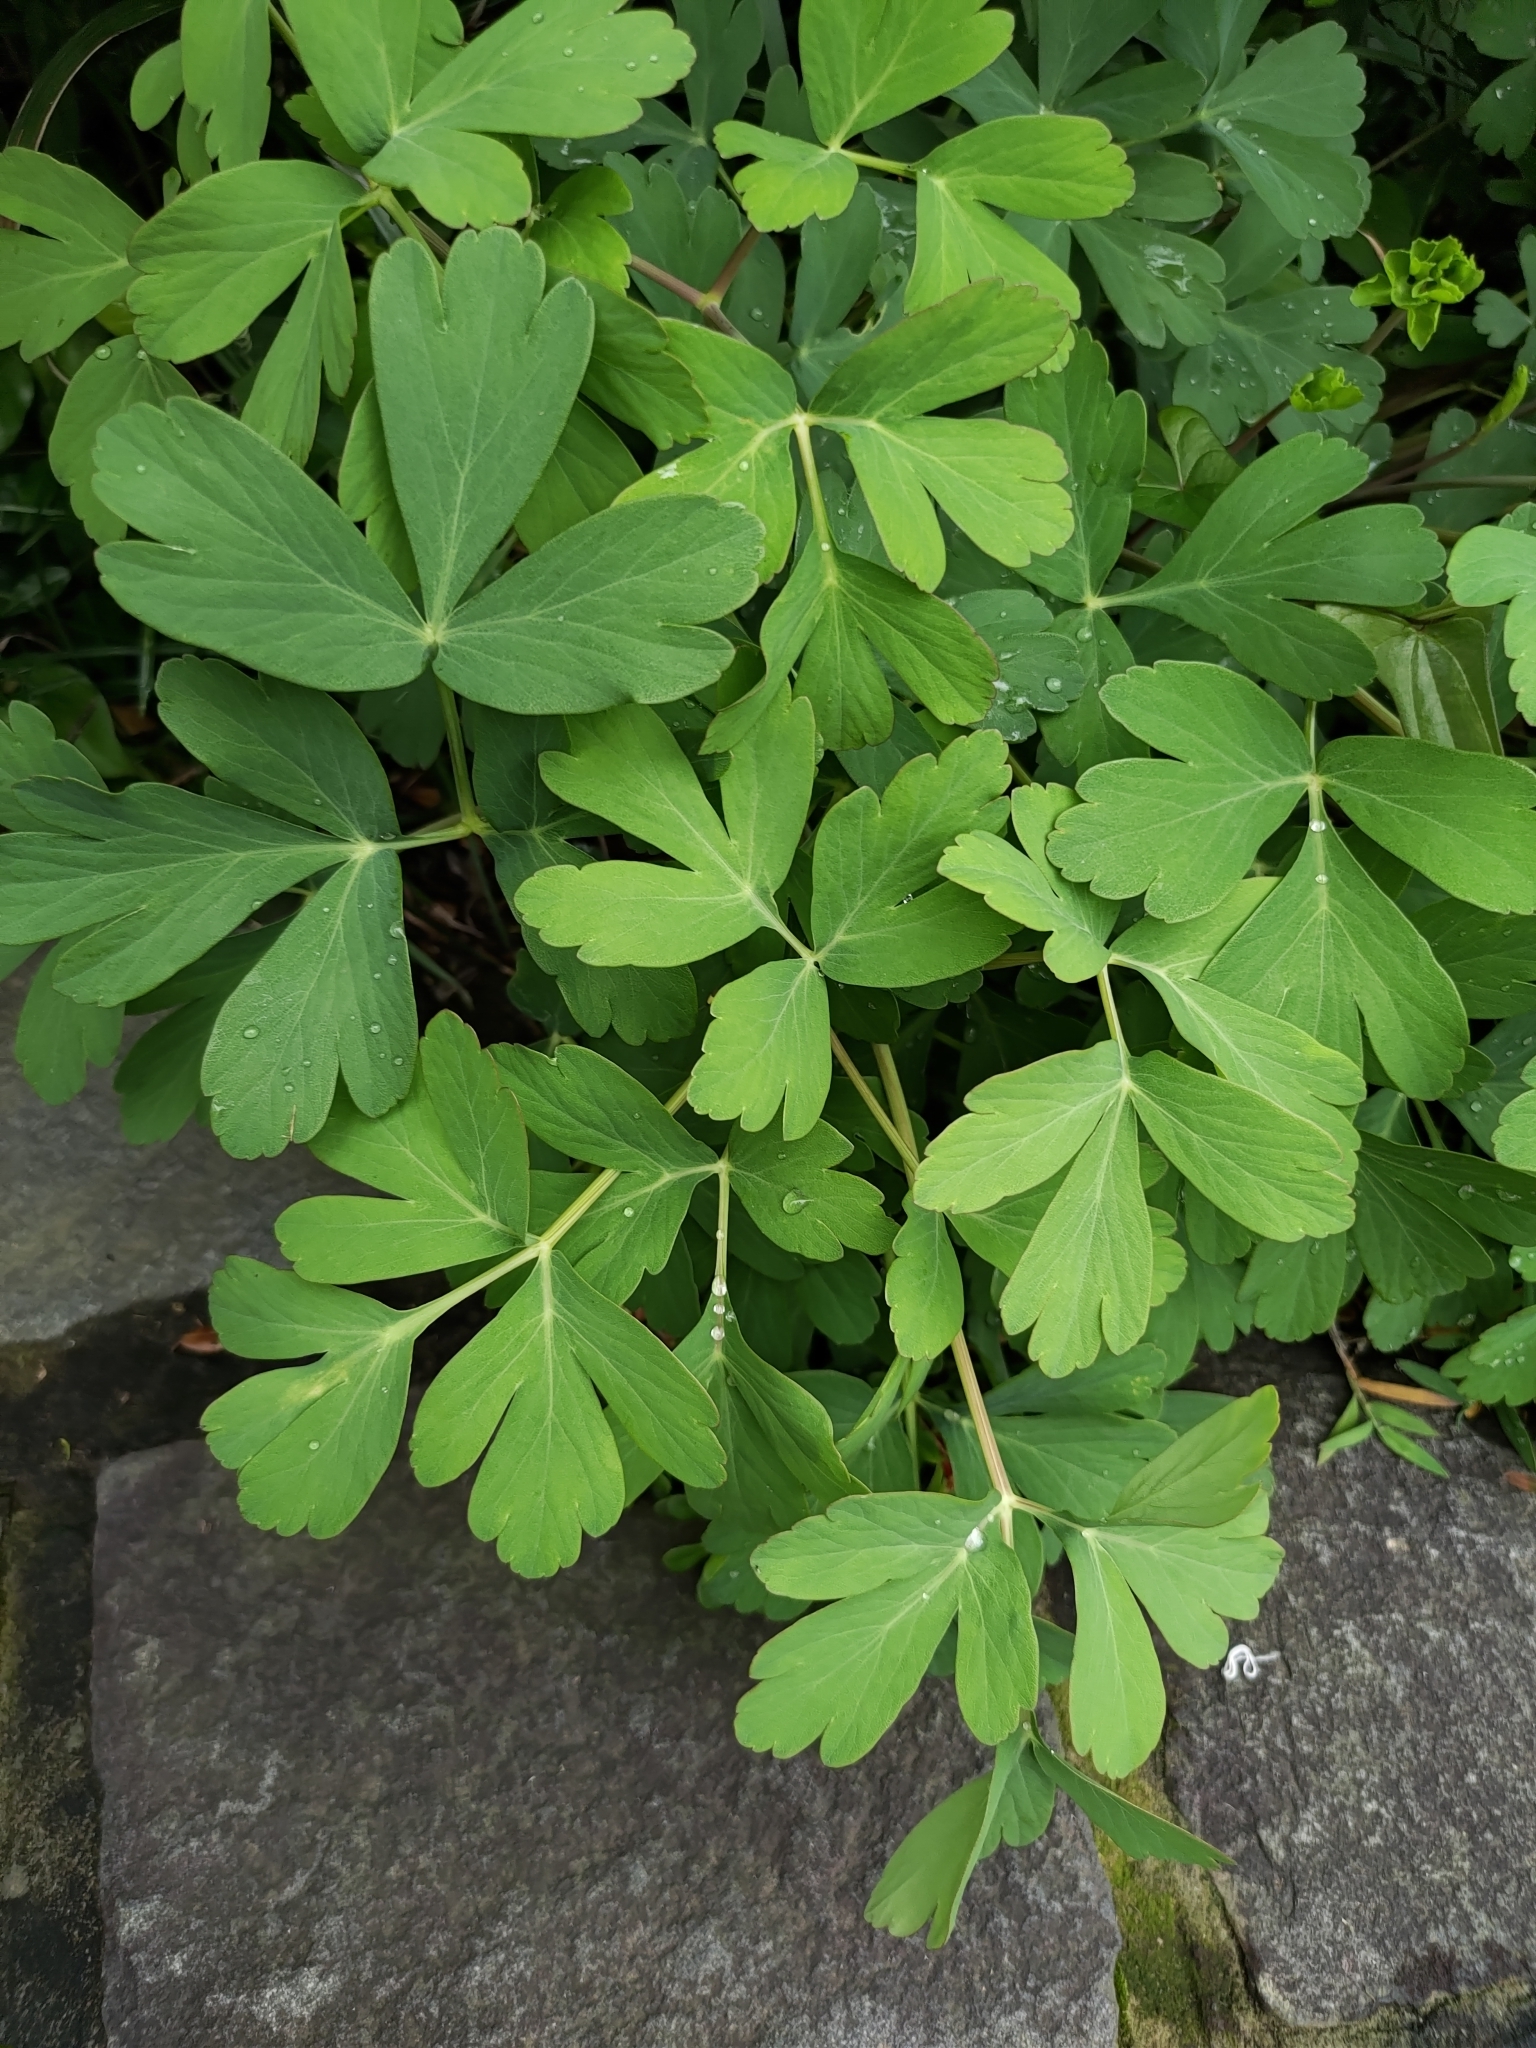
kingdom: Plantae
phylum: Tracheophyta
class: Magnoliopsida
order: Apiales
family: Apiaceae
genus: Peucedanum
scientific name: Peucedanum japonicum
